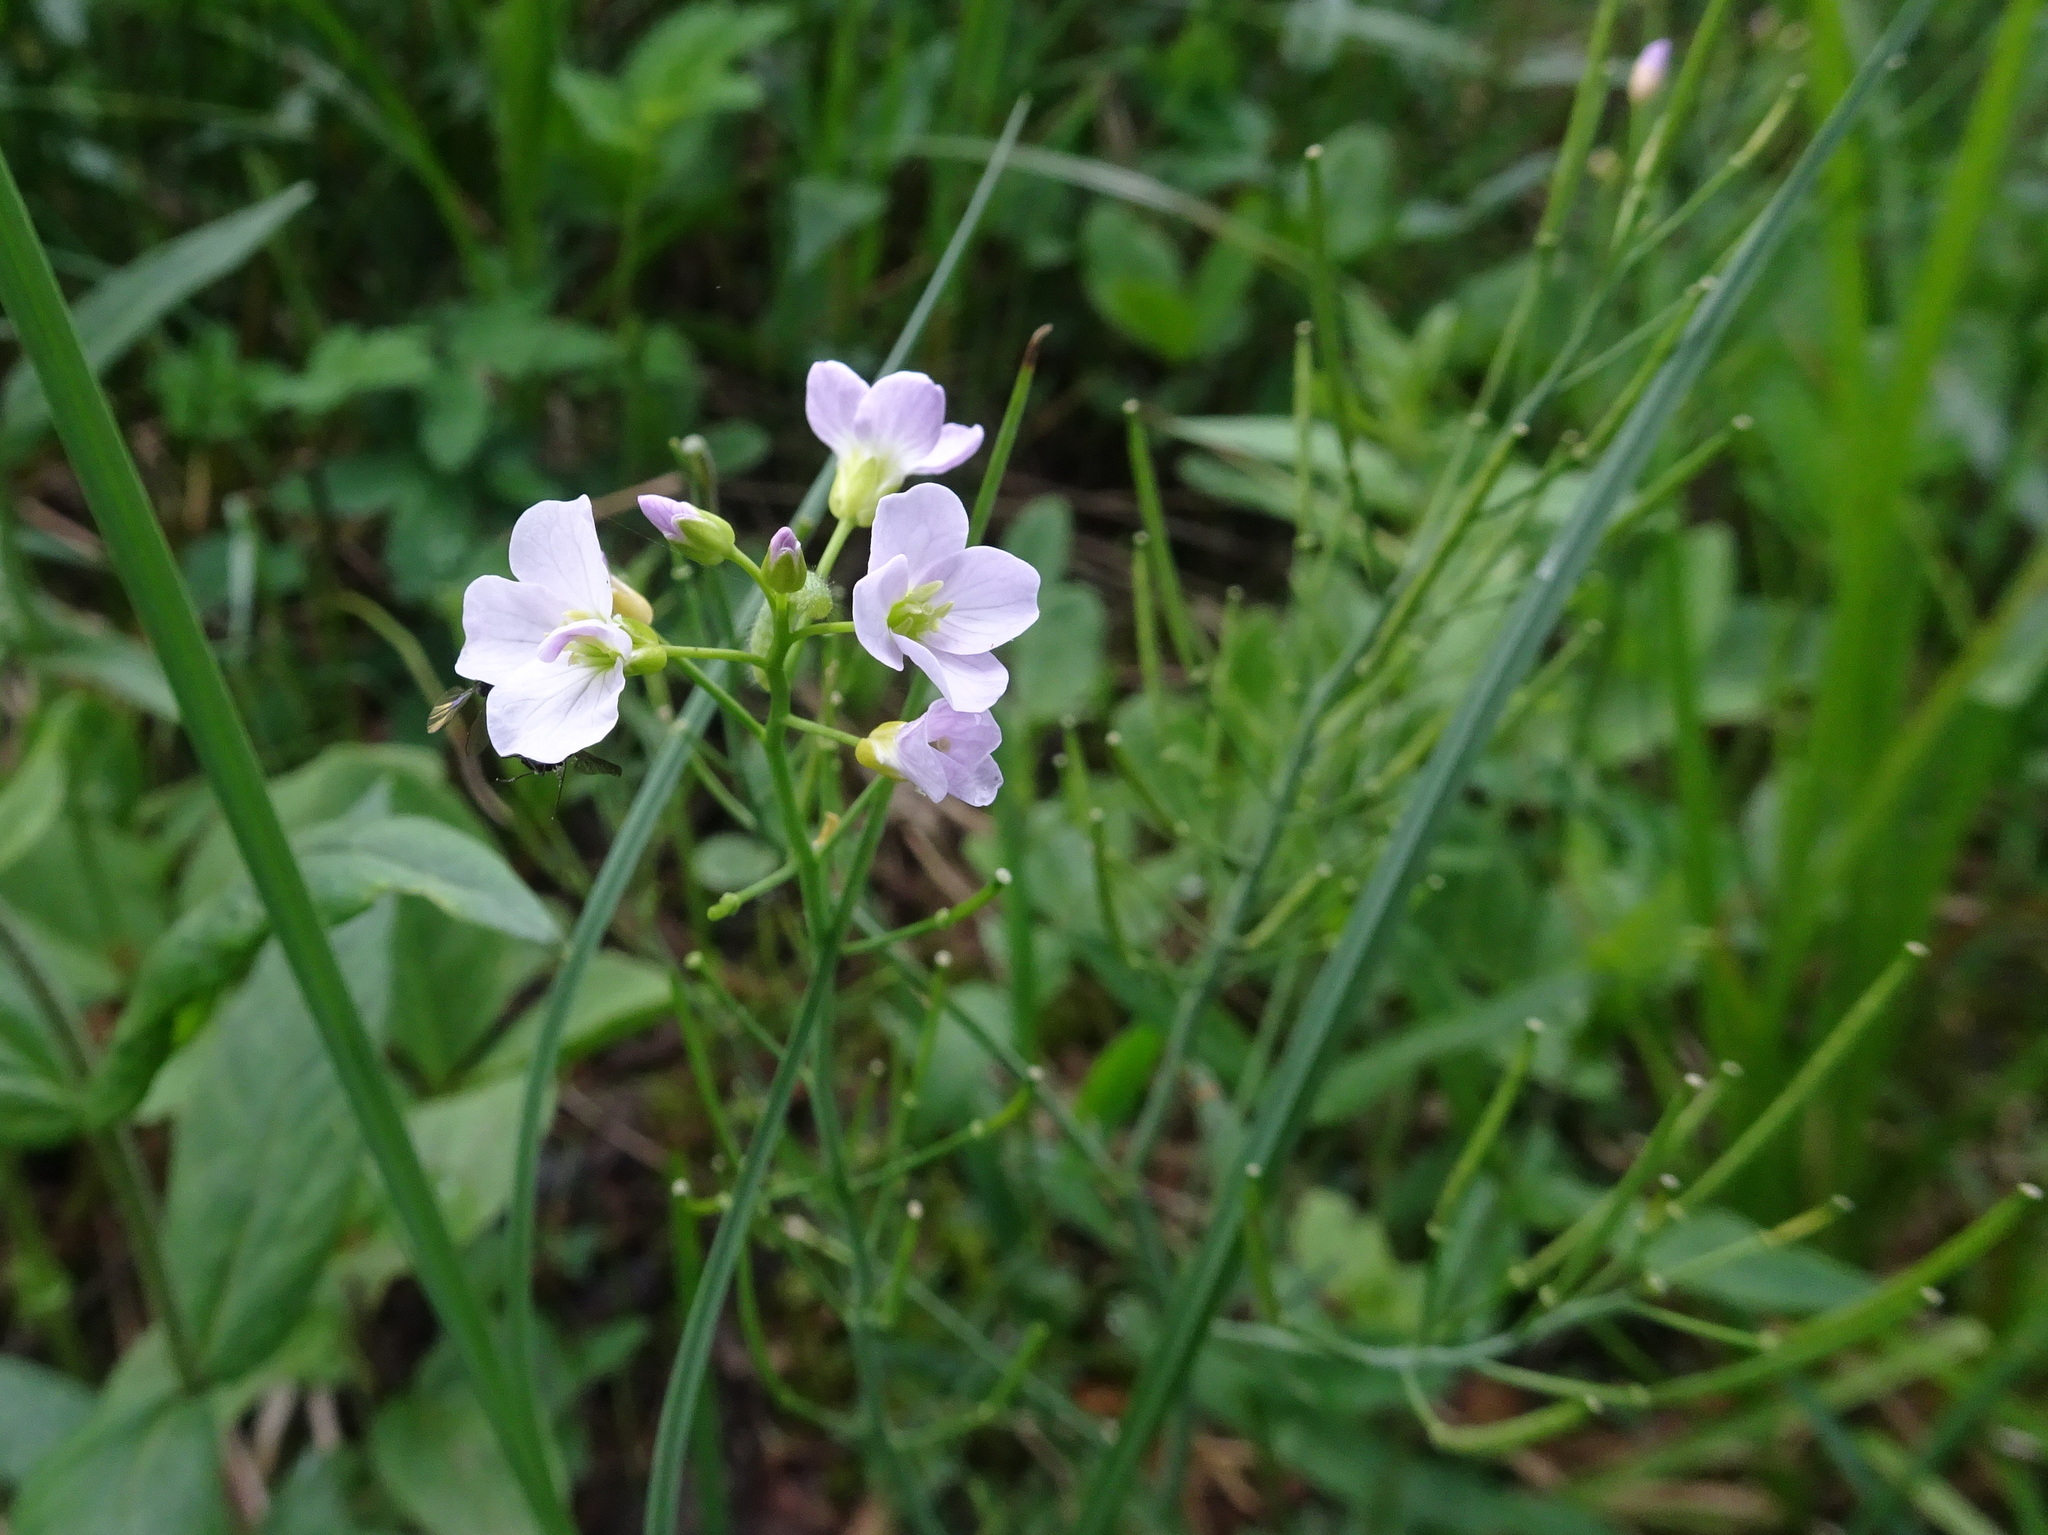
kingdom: Plantae
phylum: Tracheophyta
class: Magnoliopsida
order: Brassicales
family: Brassicaceae
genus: Cardamine
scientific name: Cardamine pratensis
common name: Cuckoo flower
